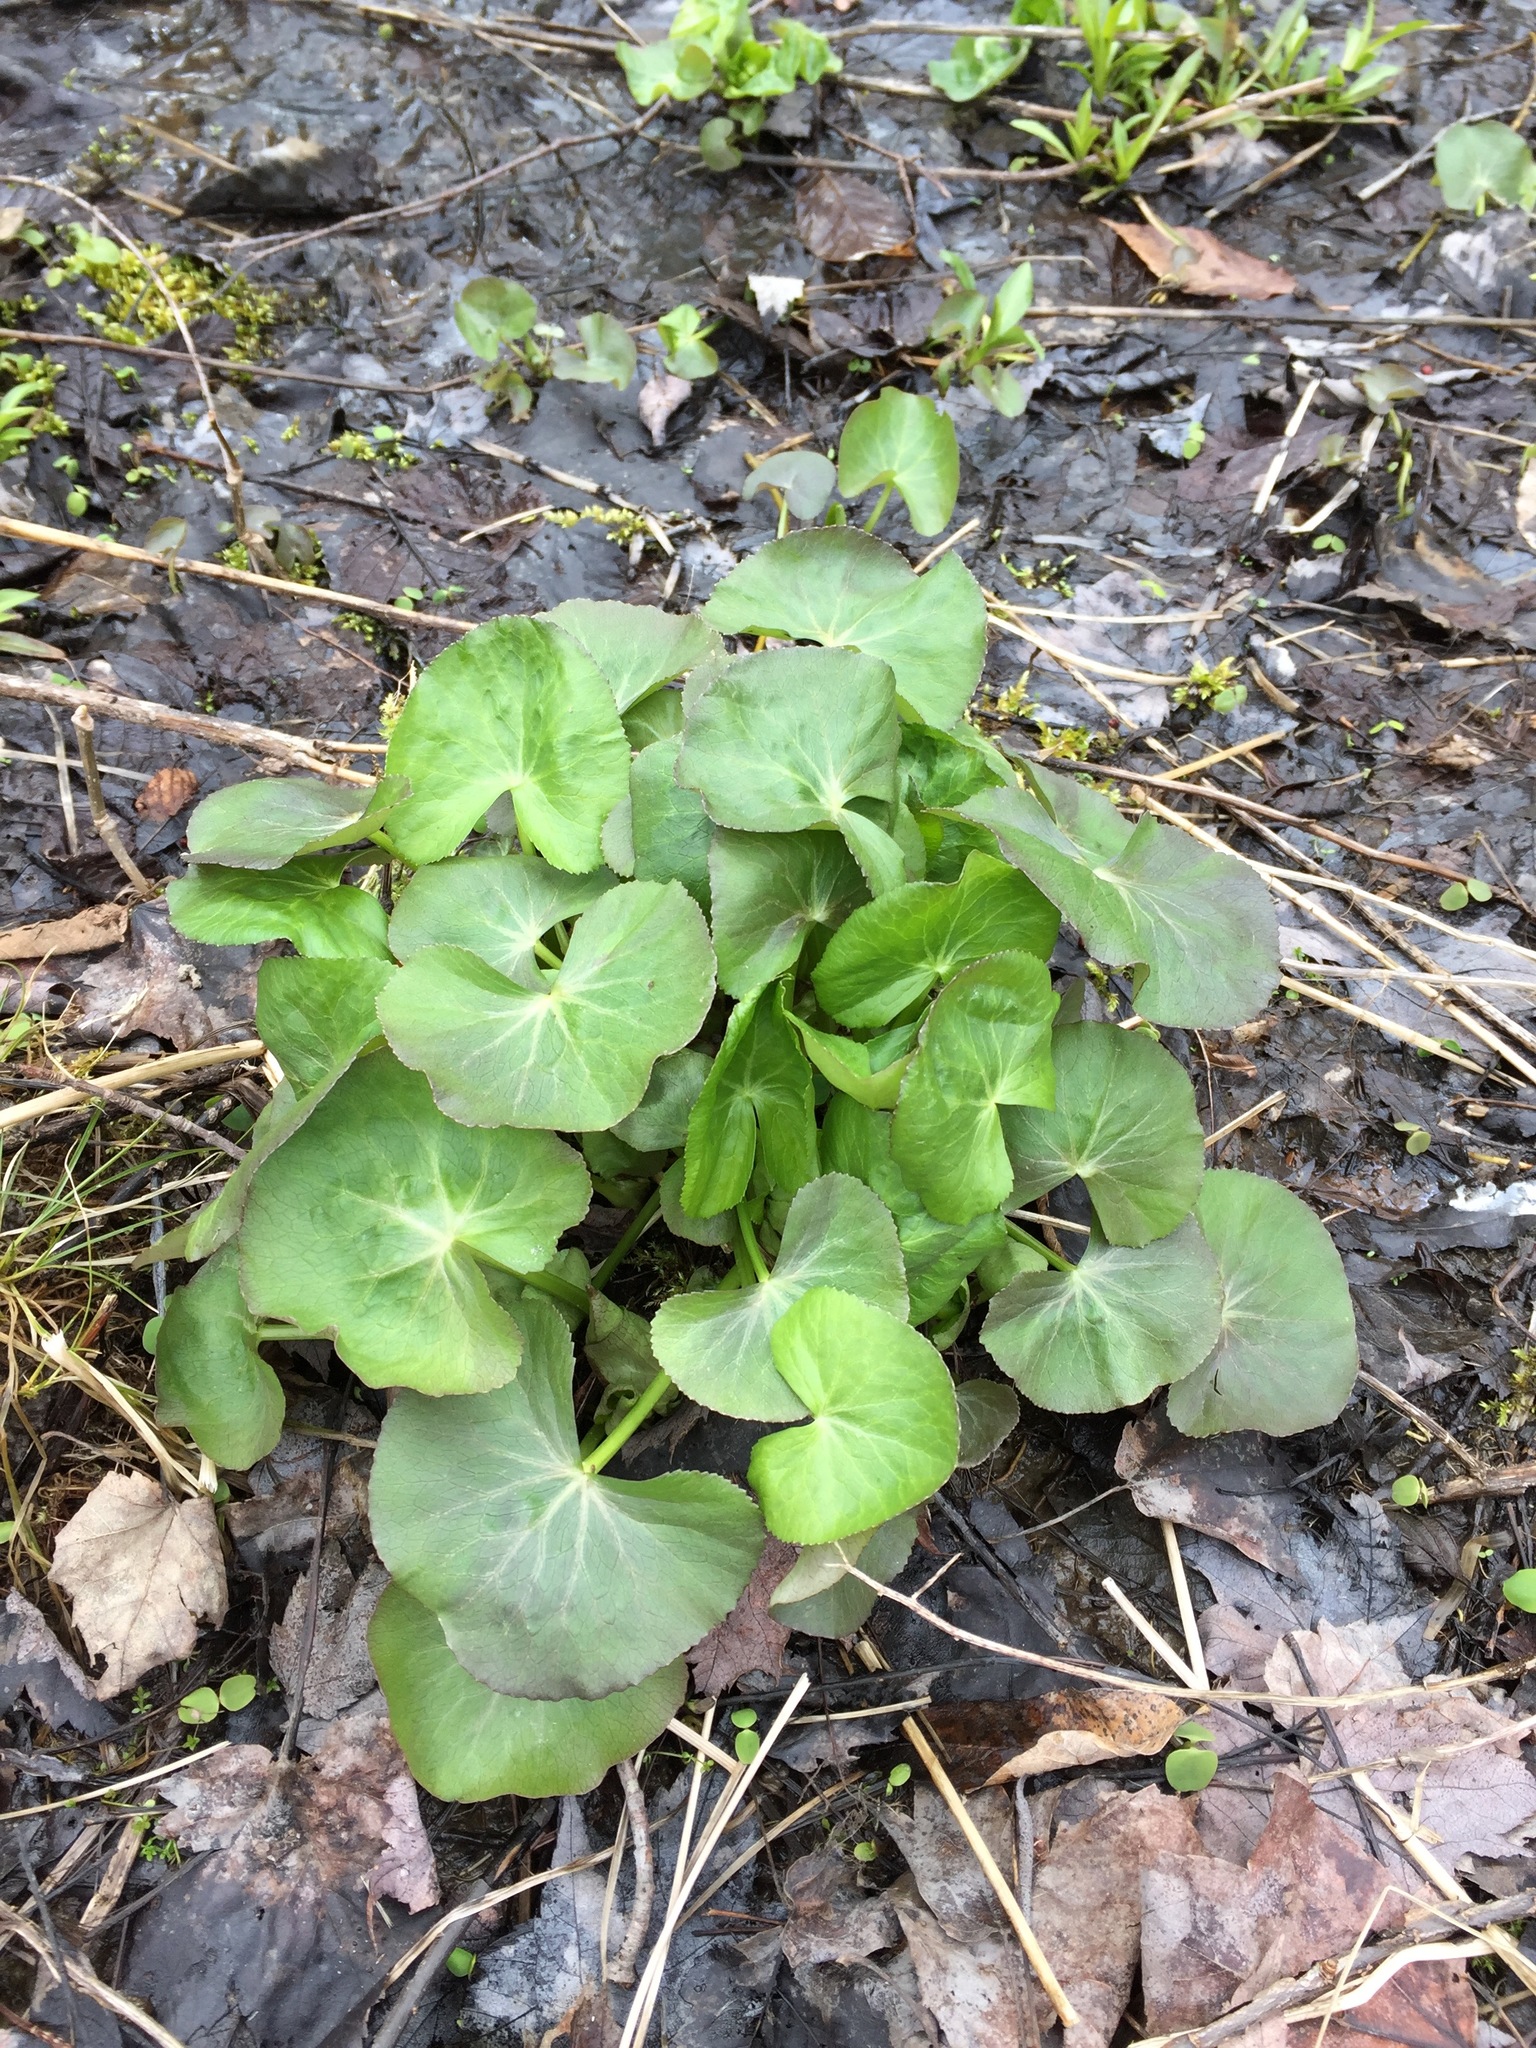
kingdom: Plantae
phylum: Tracheophyta
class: Magnoliopsida
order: Ranunculales
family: Ranunculaceae
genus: Caltha
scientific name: Caltha palustris
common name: Marsh marigold
